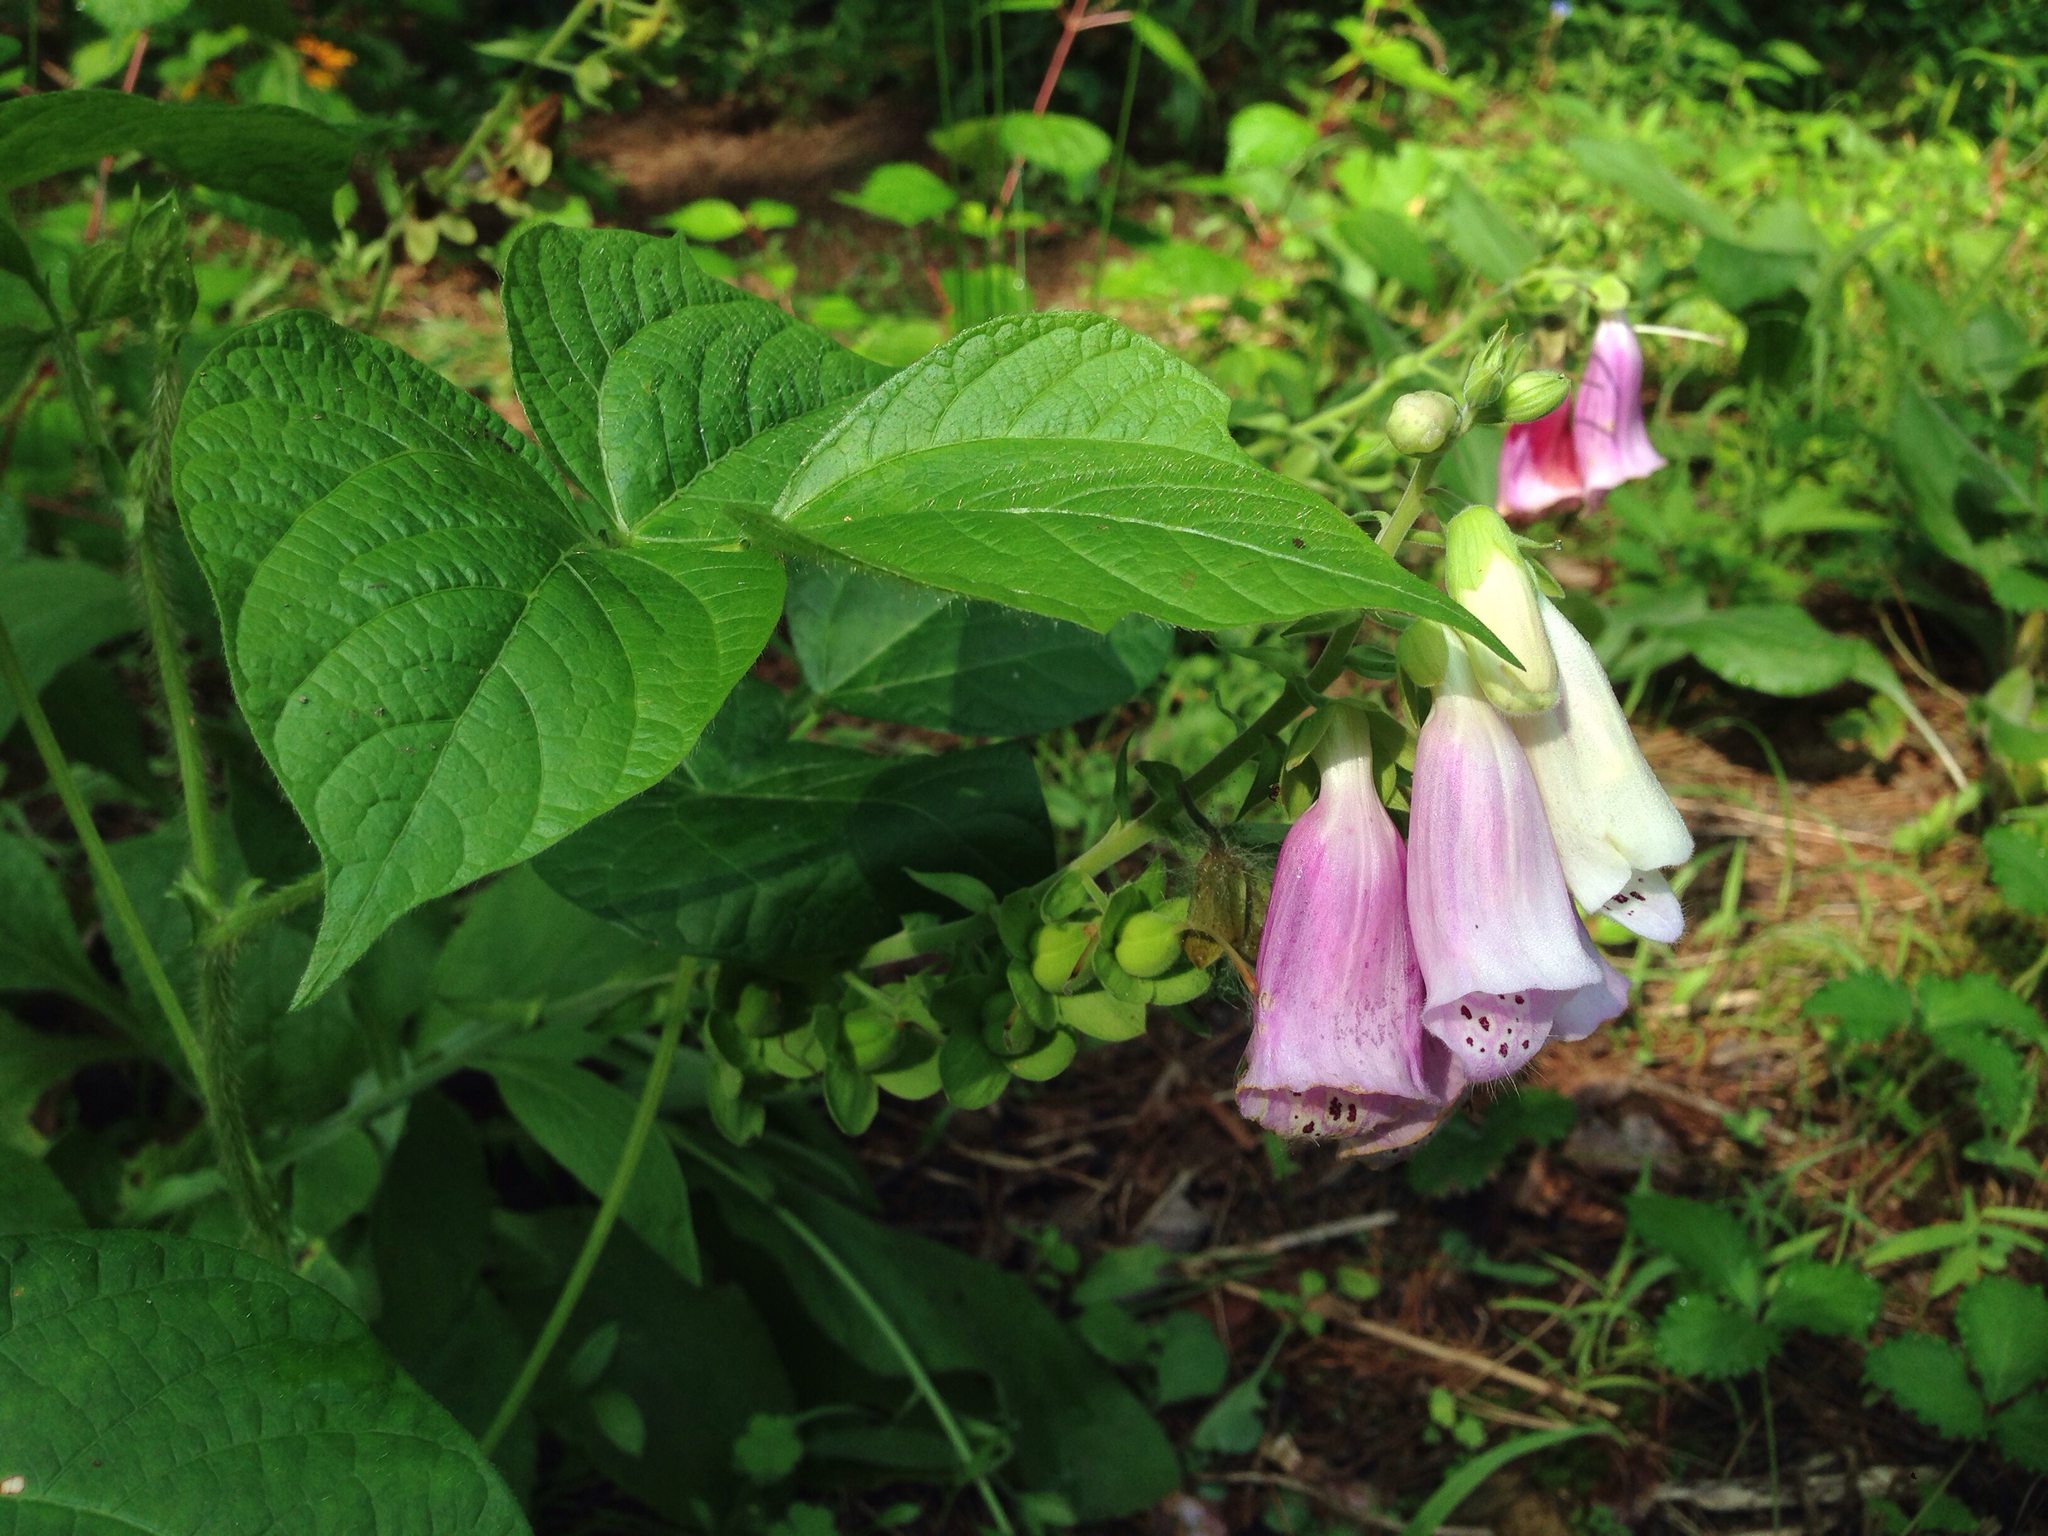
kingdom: Plantae
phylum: Tracheophyta
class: Magnoliopsida
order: Lamiales
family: Plantaginaceae
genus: Digitalis
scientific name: Digitalis purpurea
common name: Foxglove
